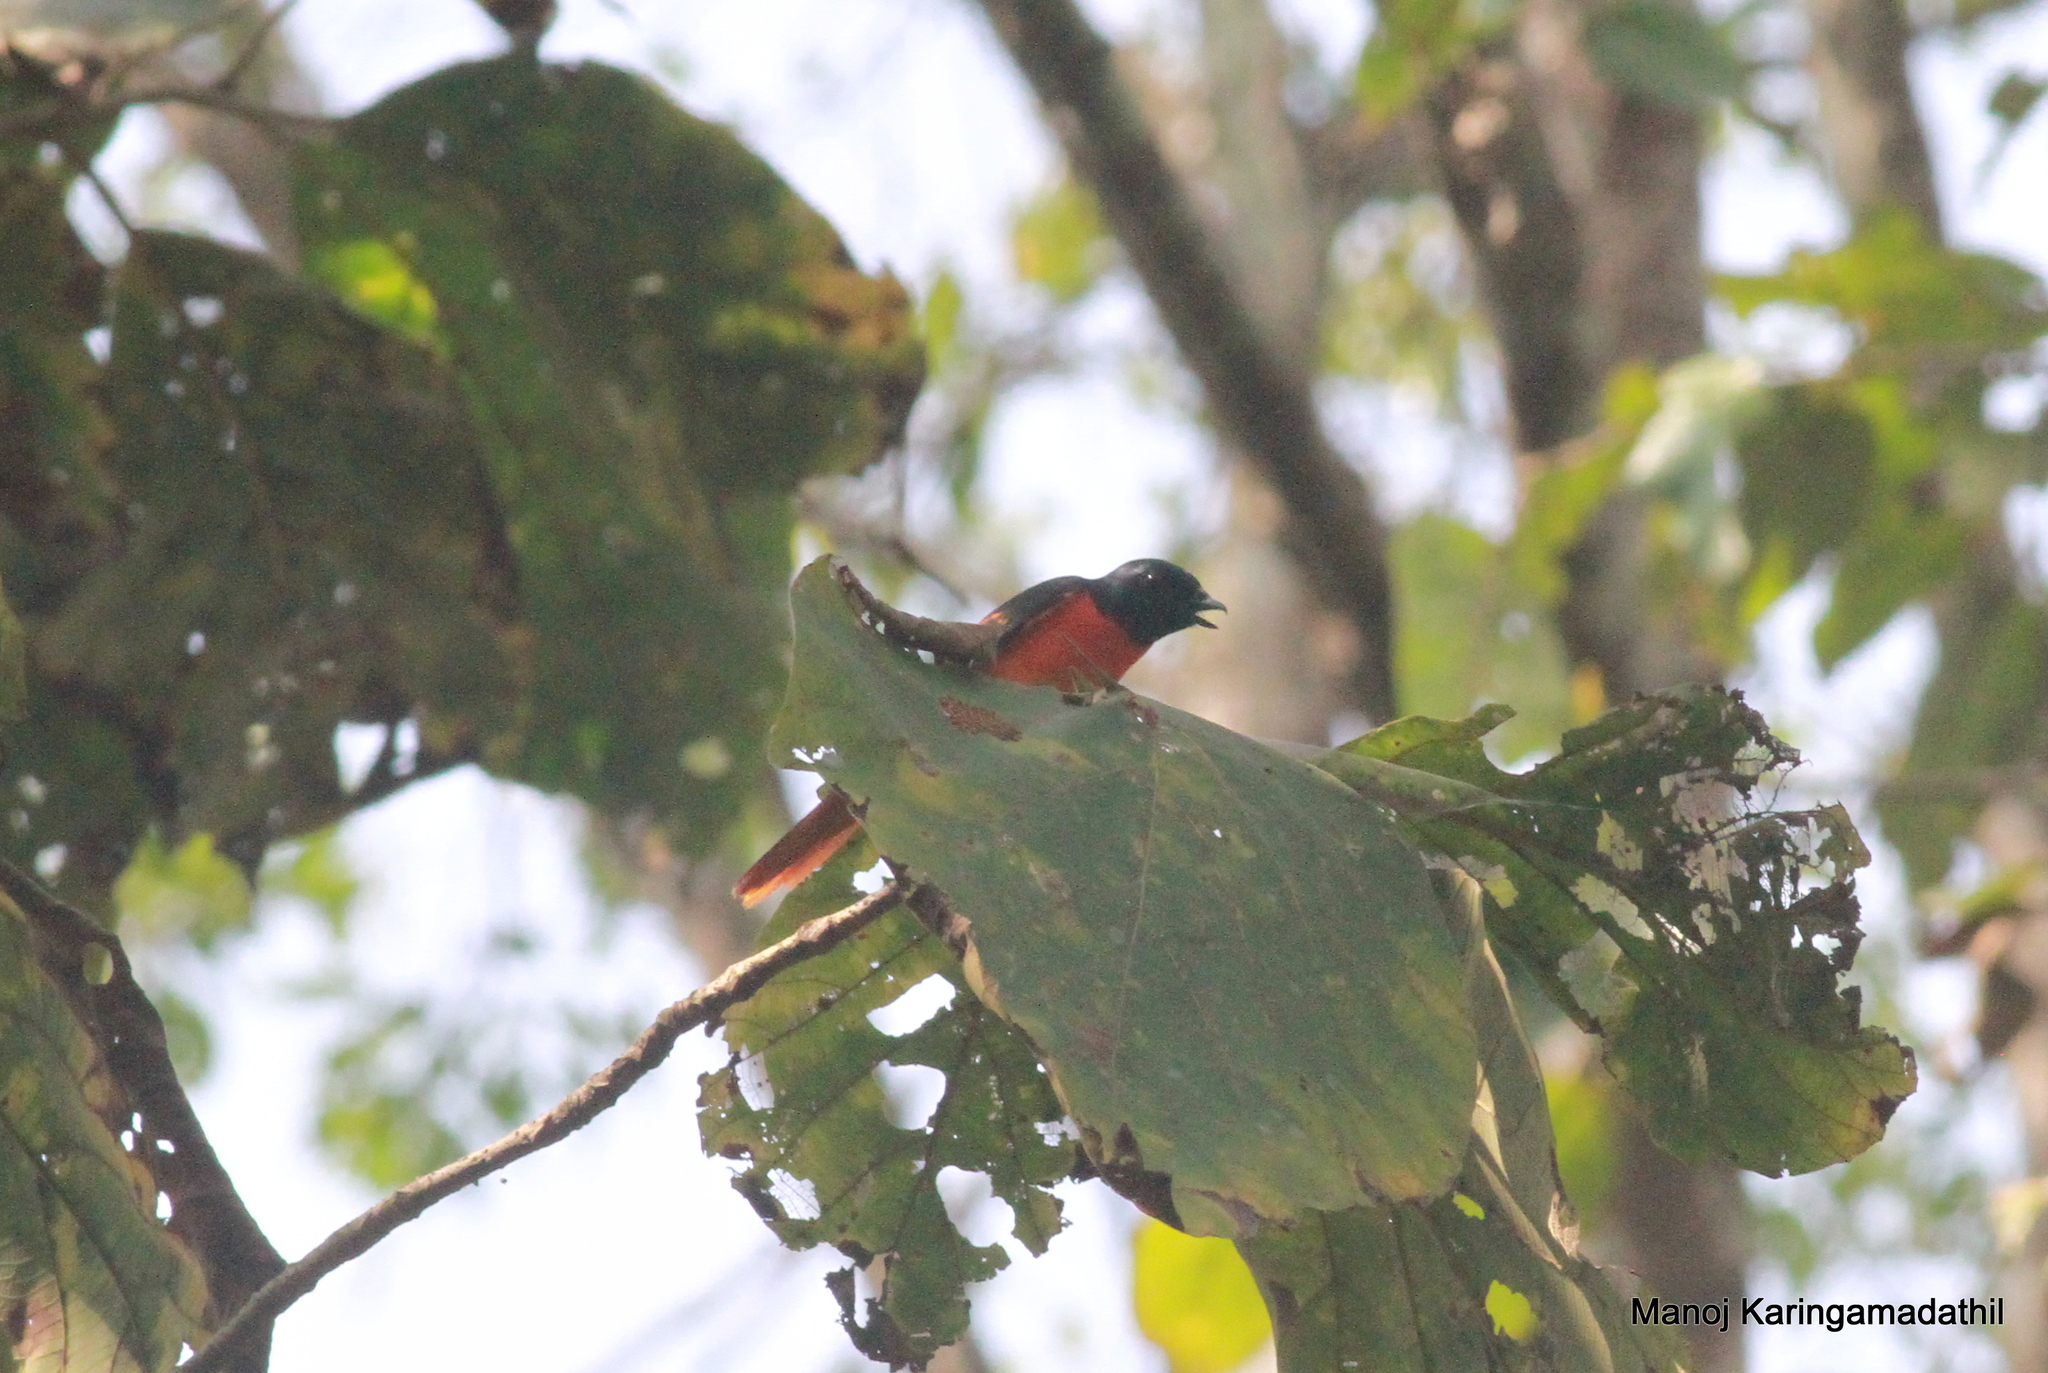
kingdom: Animalia
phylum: Chordata
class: Aves
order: Passeriformes
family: Campephagidae
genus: Pericrocotus
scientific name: Pericrocotus flammeus
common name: Orange minivet
